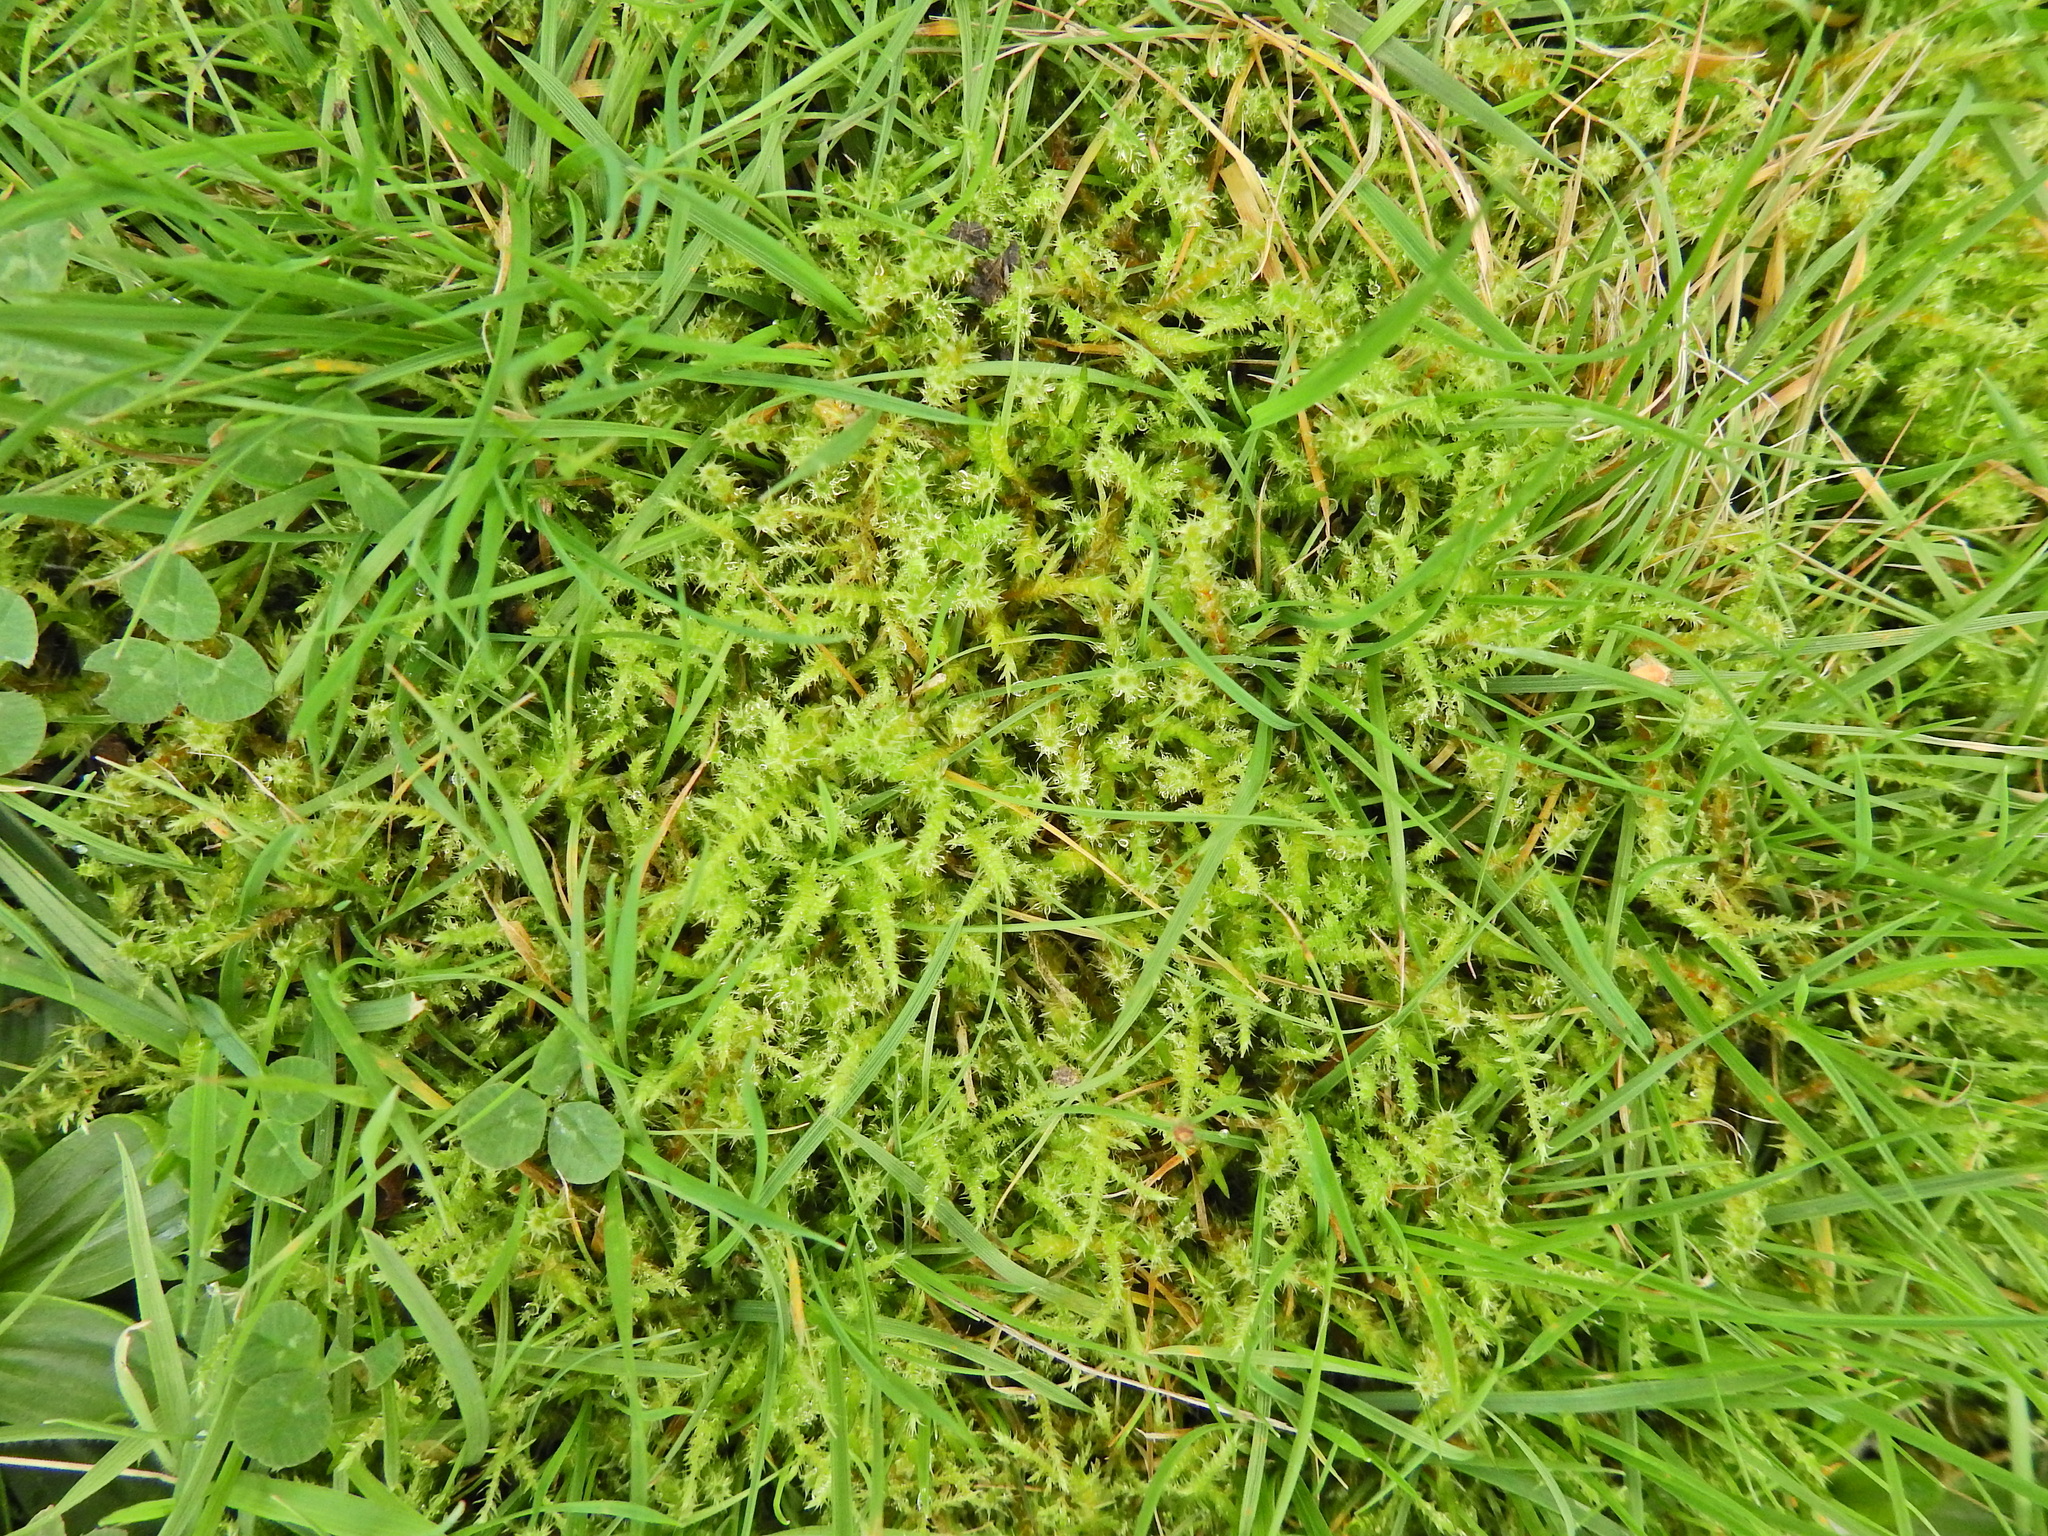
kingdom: Plantae
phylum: Bryophyta
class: Bryopsida
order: Hypnales
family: Hylocomiaceae
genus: Rhytidiadelphus
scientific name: Rhytidiadelphus squarrosus
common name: Springy turf-moss
